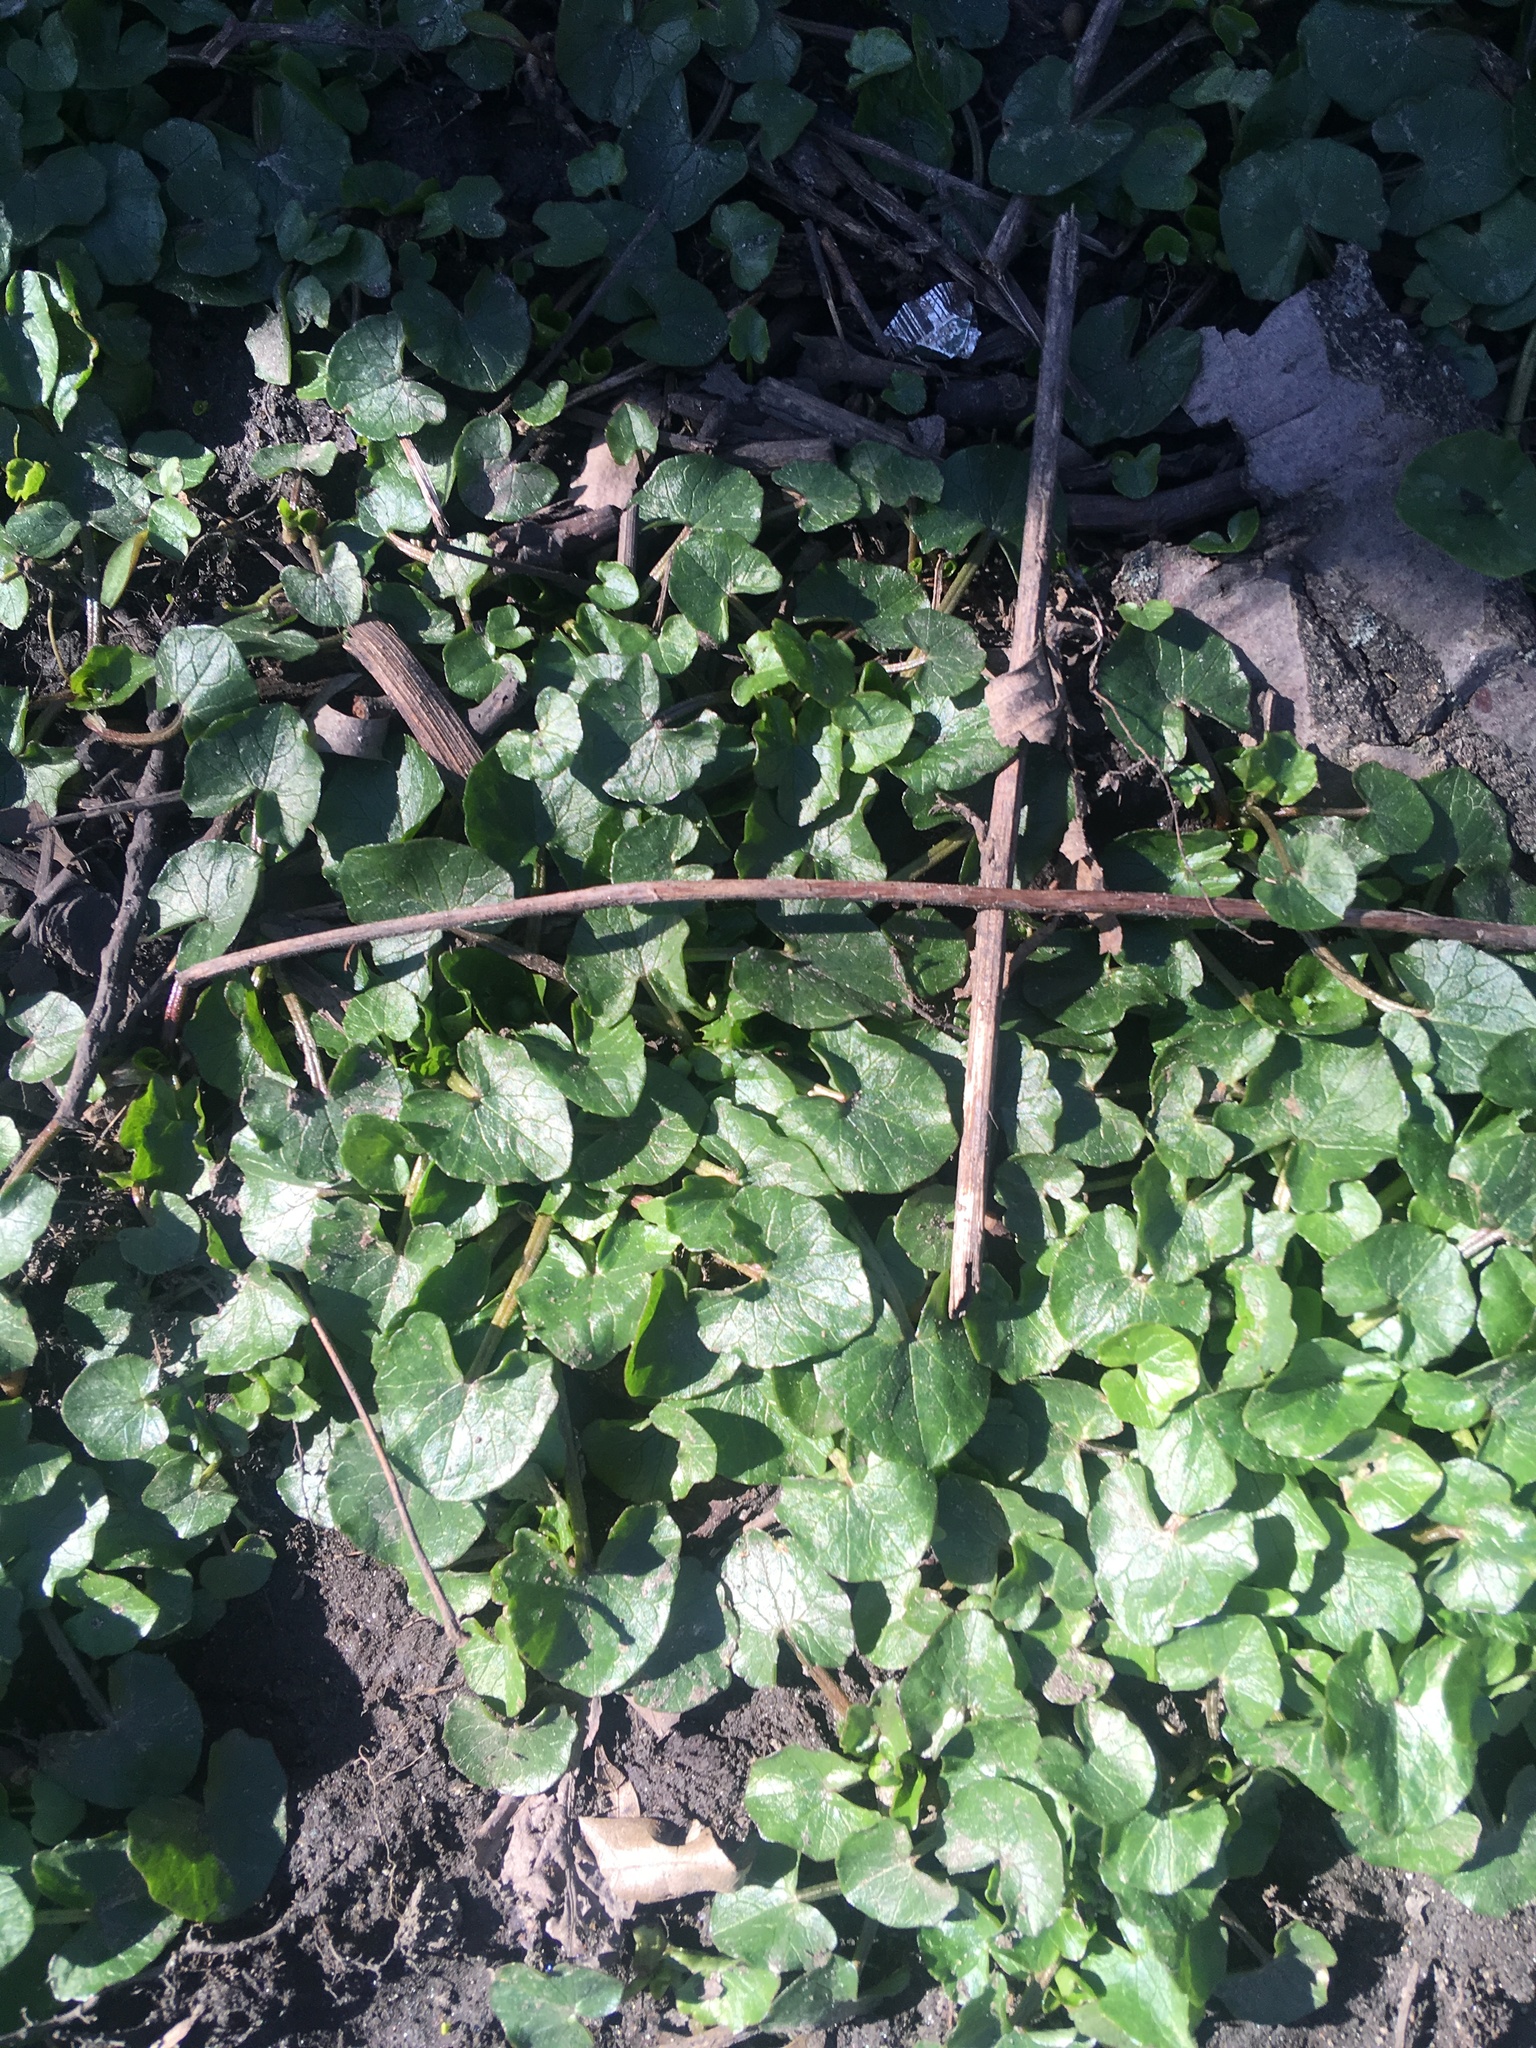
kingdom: Plantae
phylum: Tracheophyta
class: Magnoliopsida
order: Ranunculales
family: Ranunculaceae
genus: Ficaria
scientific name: Ficaria verna
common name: Lesser celandine
